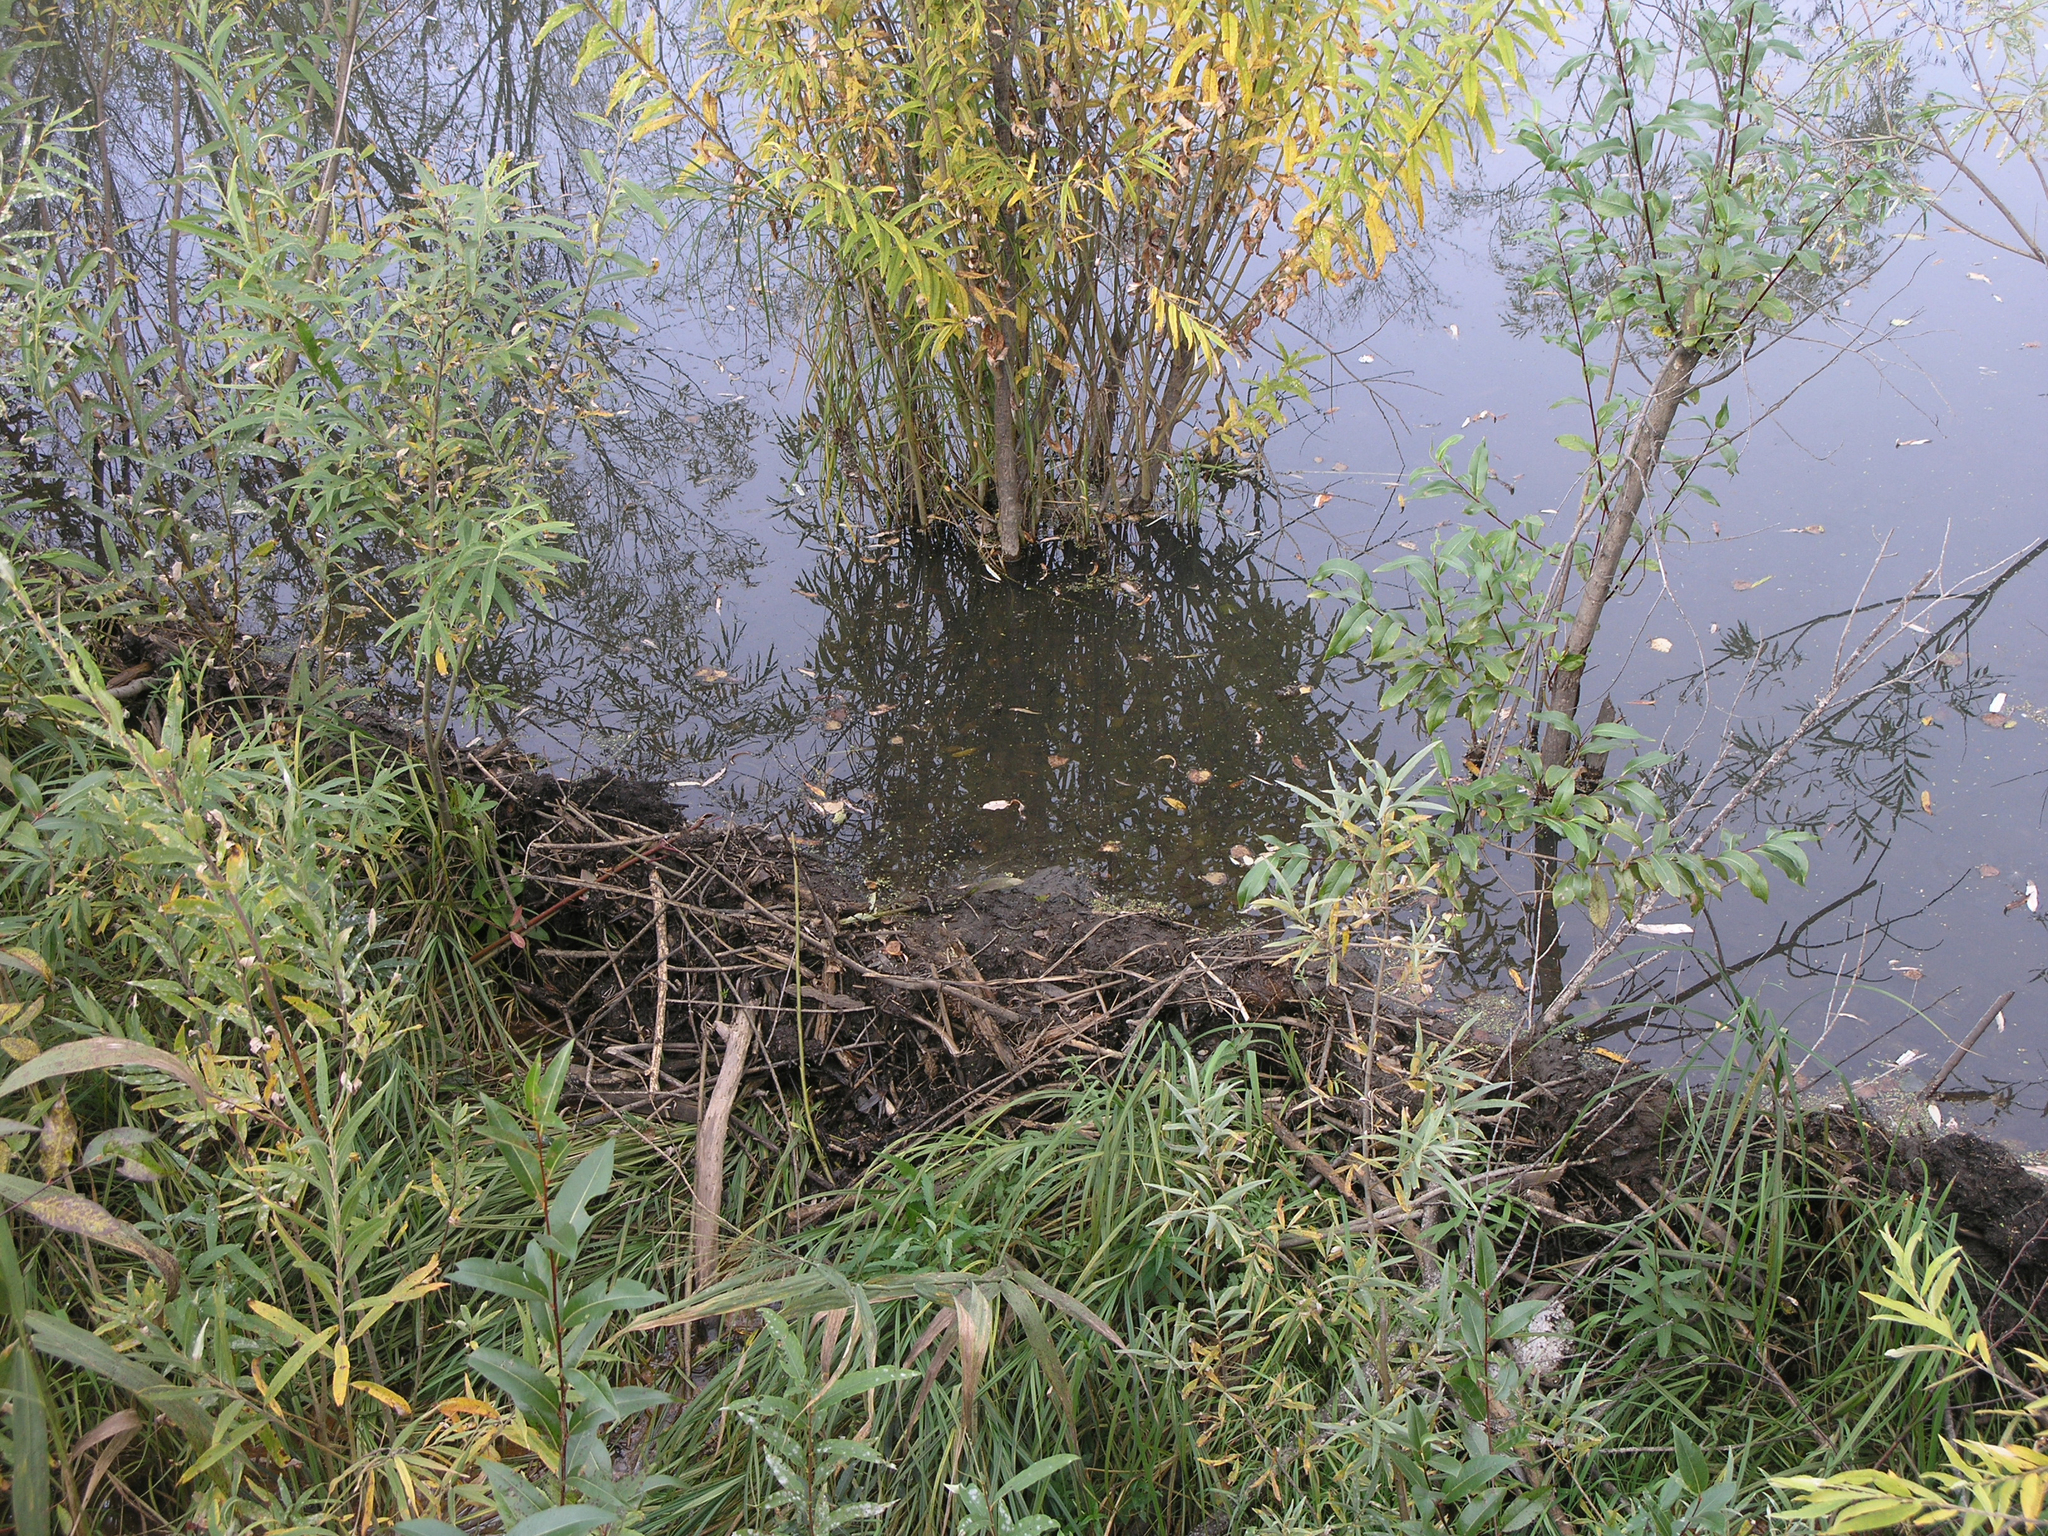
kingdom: Animalia
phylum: Chordata
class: Mammalia
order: Rodentia
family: Castoridae
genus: Castor
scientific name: Castor fiber
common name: Eurasian beaver
